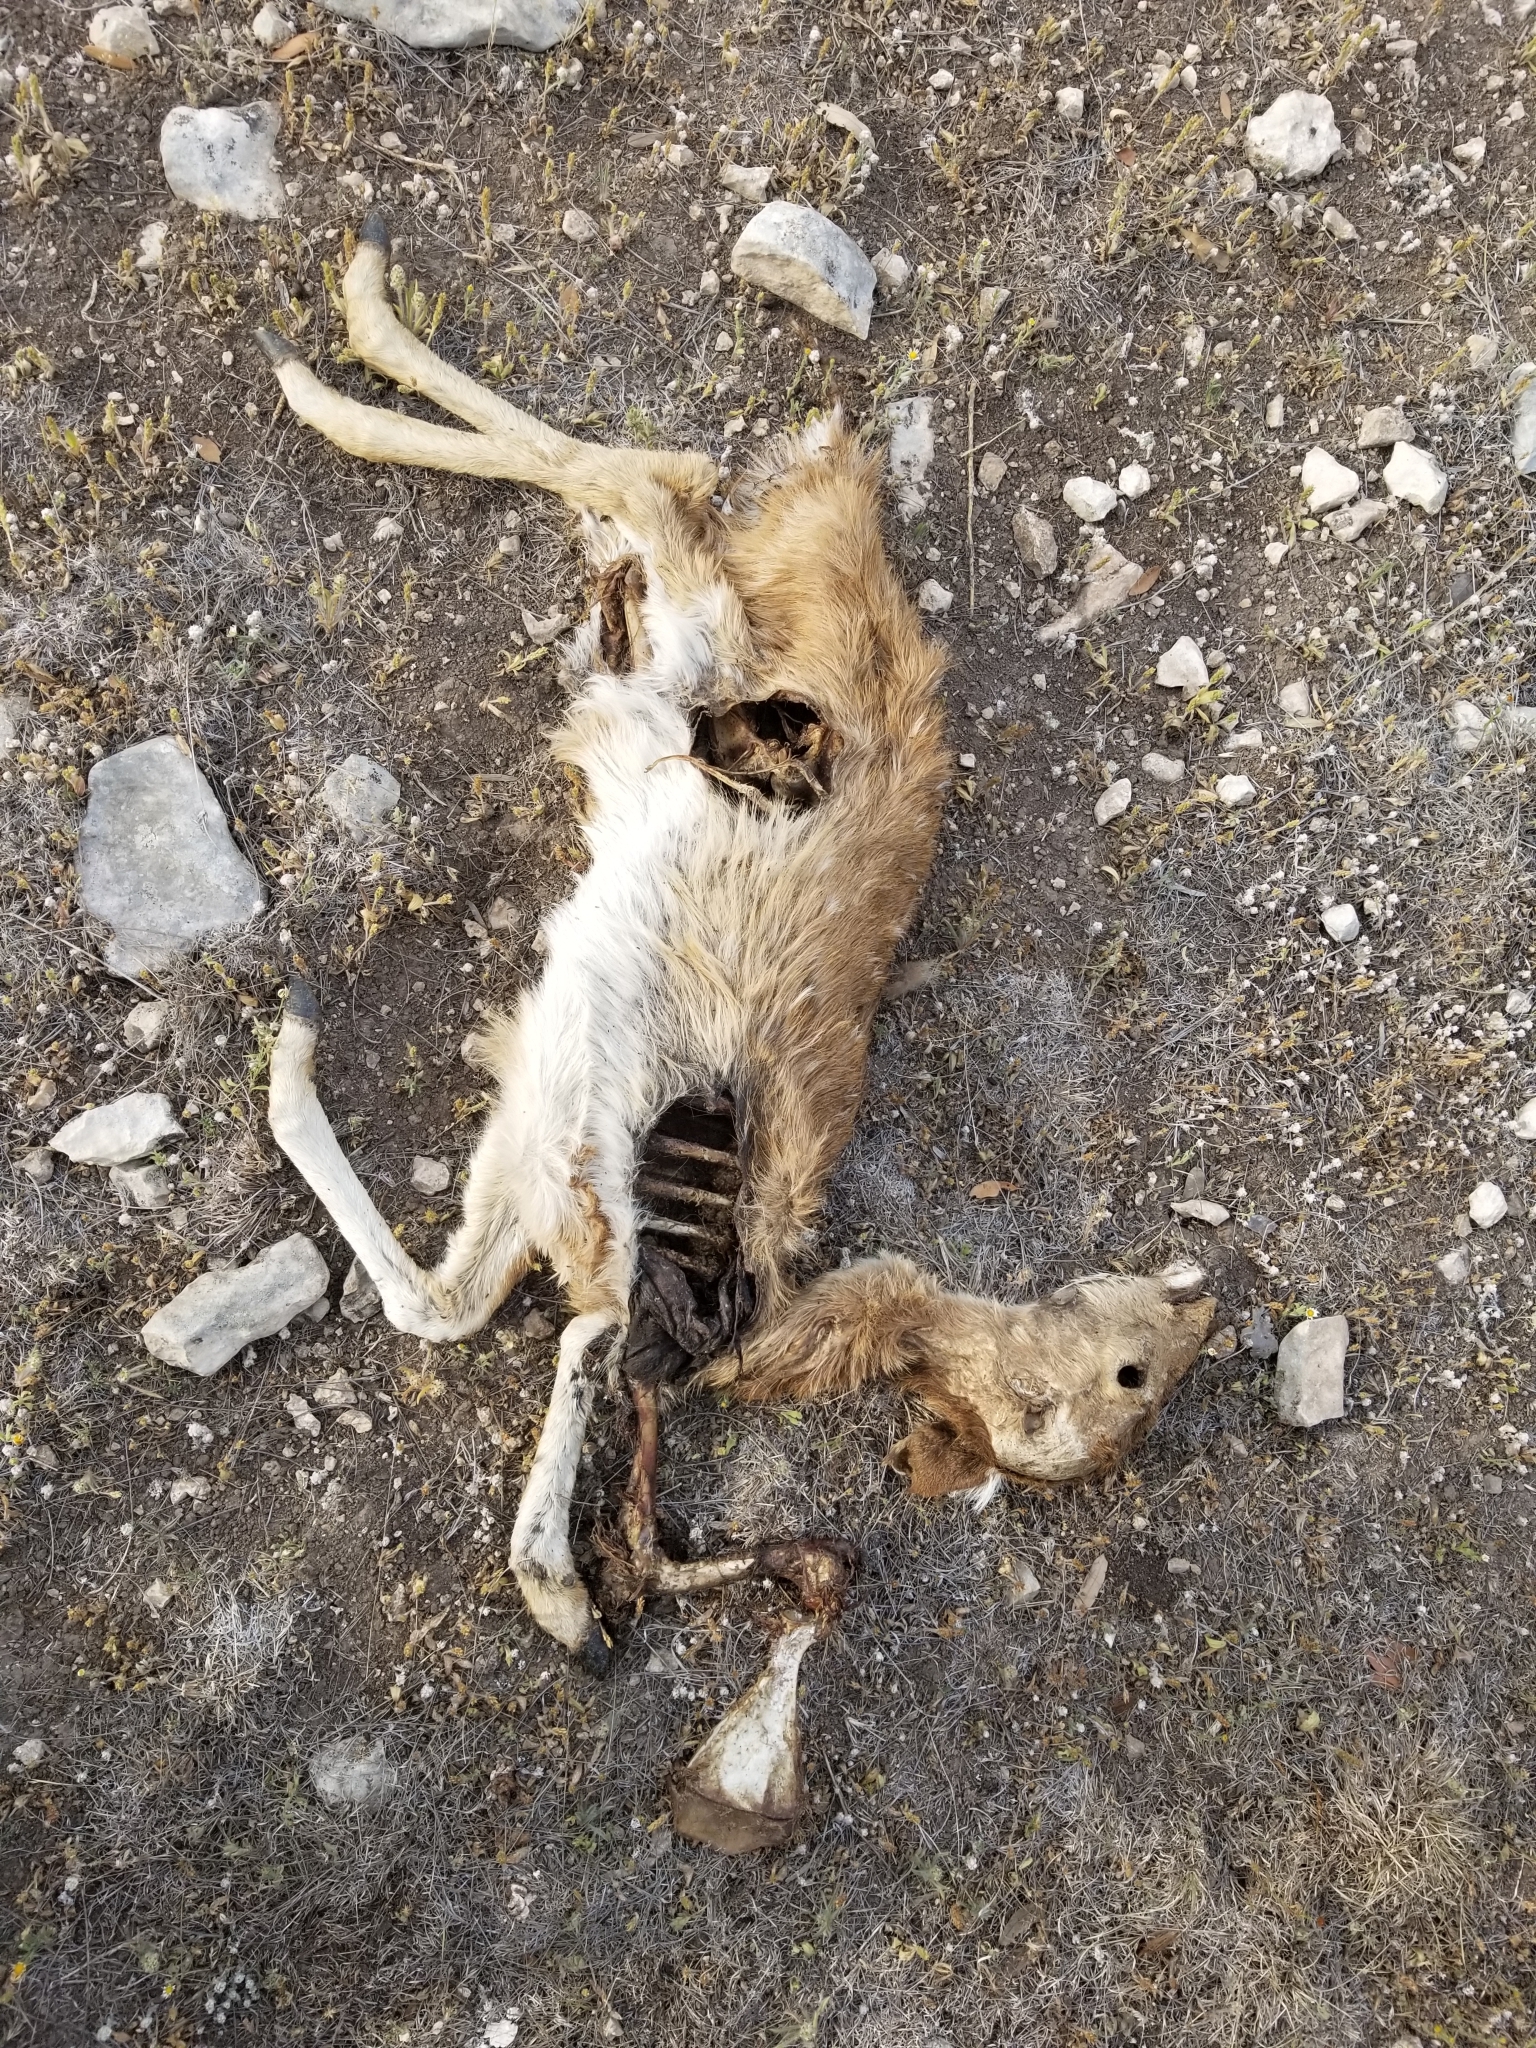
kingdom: Animalia
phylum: Chordata
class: Mammalia
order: Artiodactyla
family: Cervidae
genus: Odocoileus
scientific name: Odocoileus virginianus
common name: White-tailed deer
